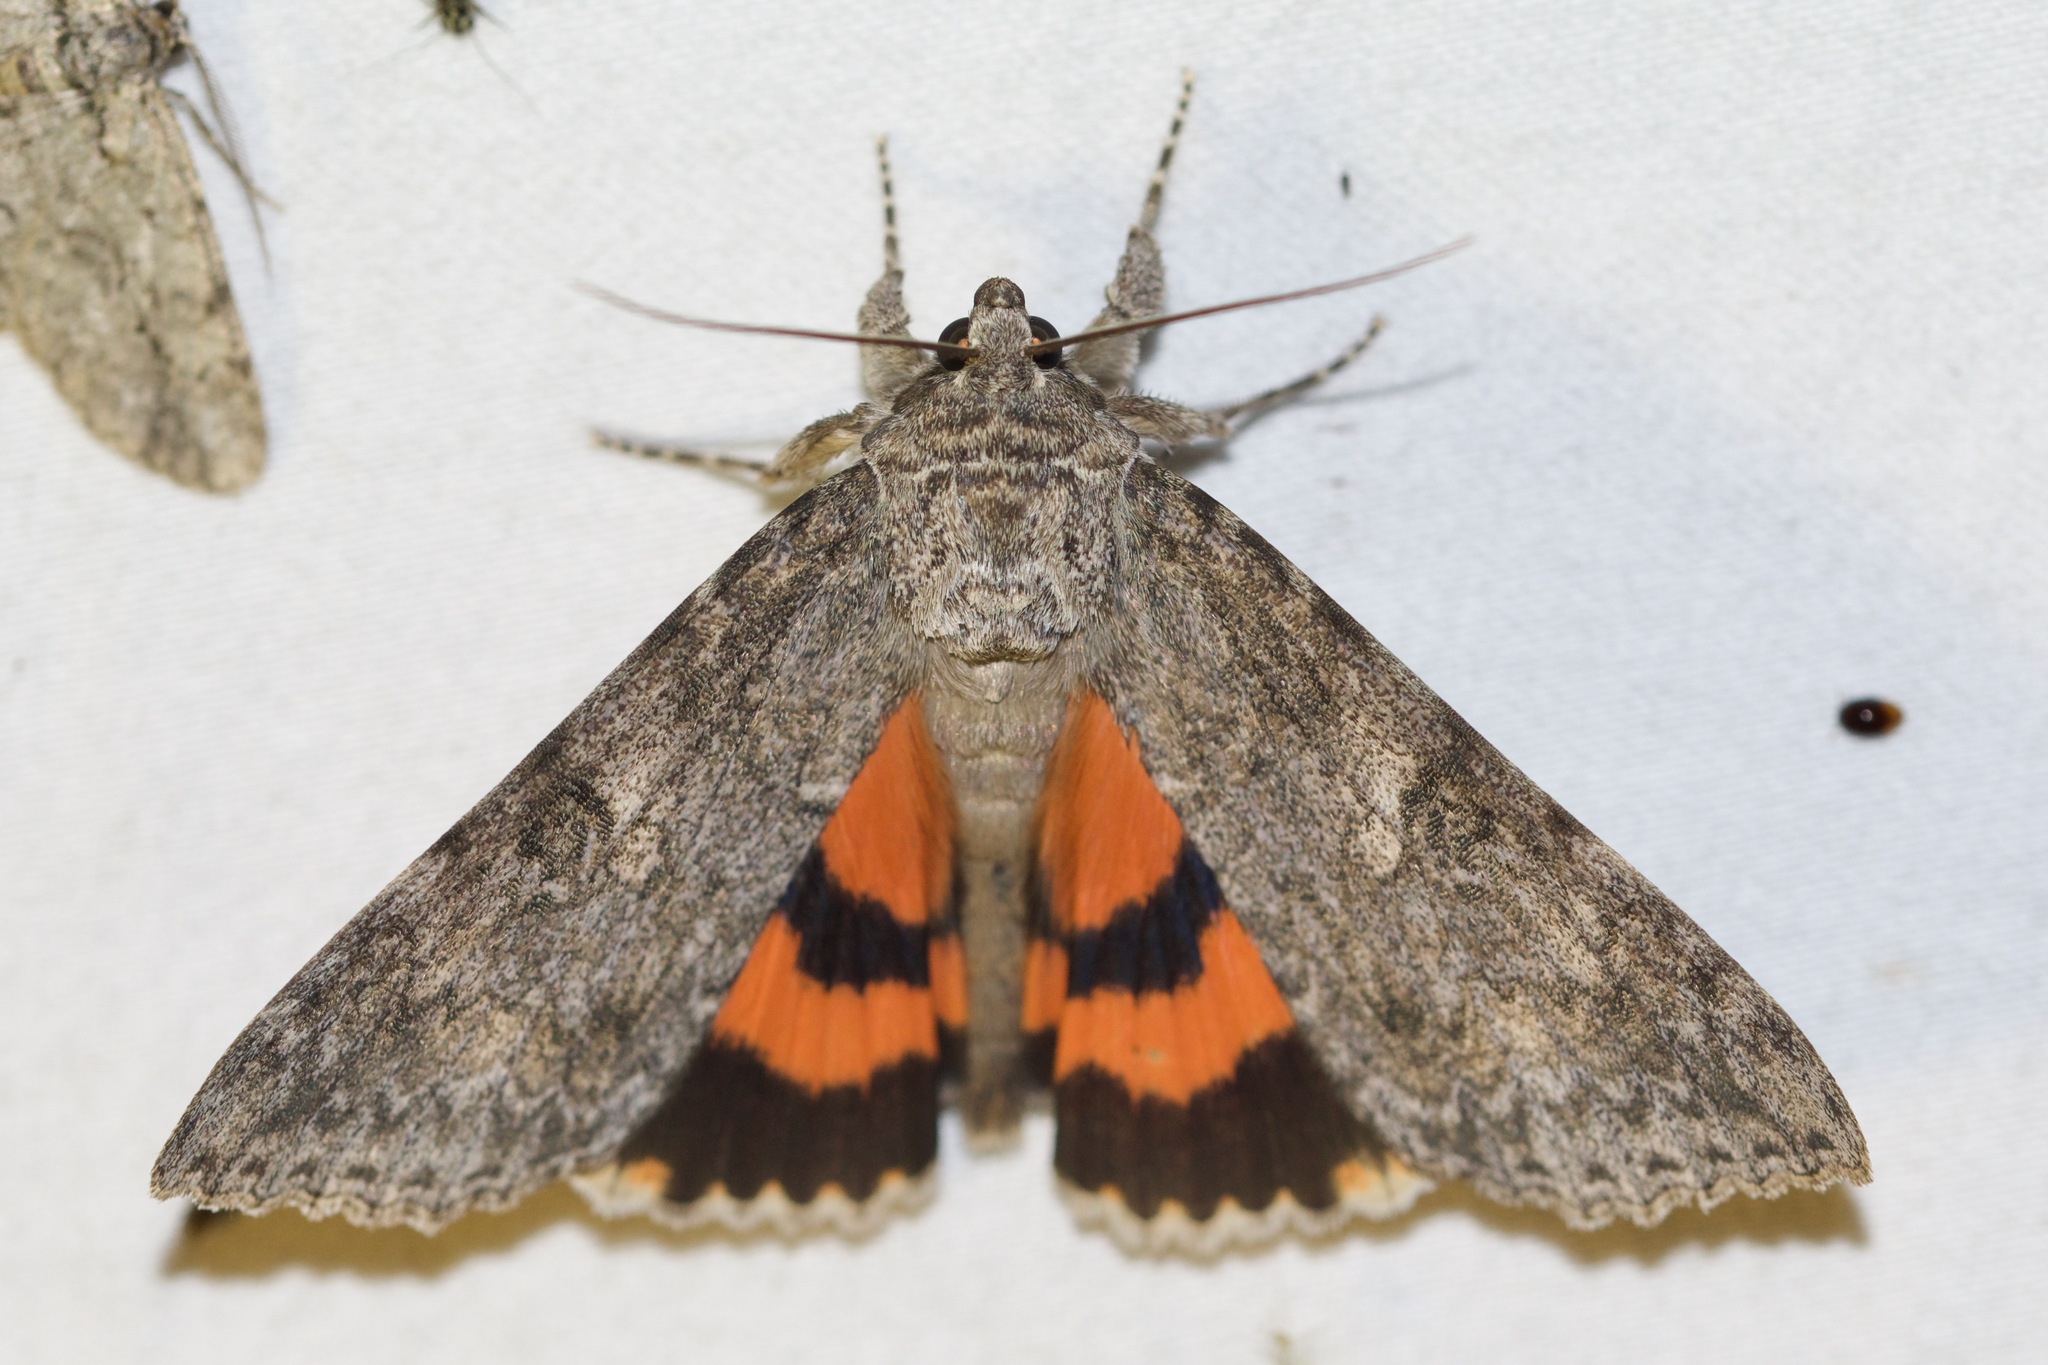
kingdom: Animalia
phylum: Arthropoda
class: Insecta
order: Lepidoptera
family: Erebidae
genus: Catocala
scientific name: Catocala meskei
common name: Meske's underwing moth
